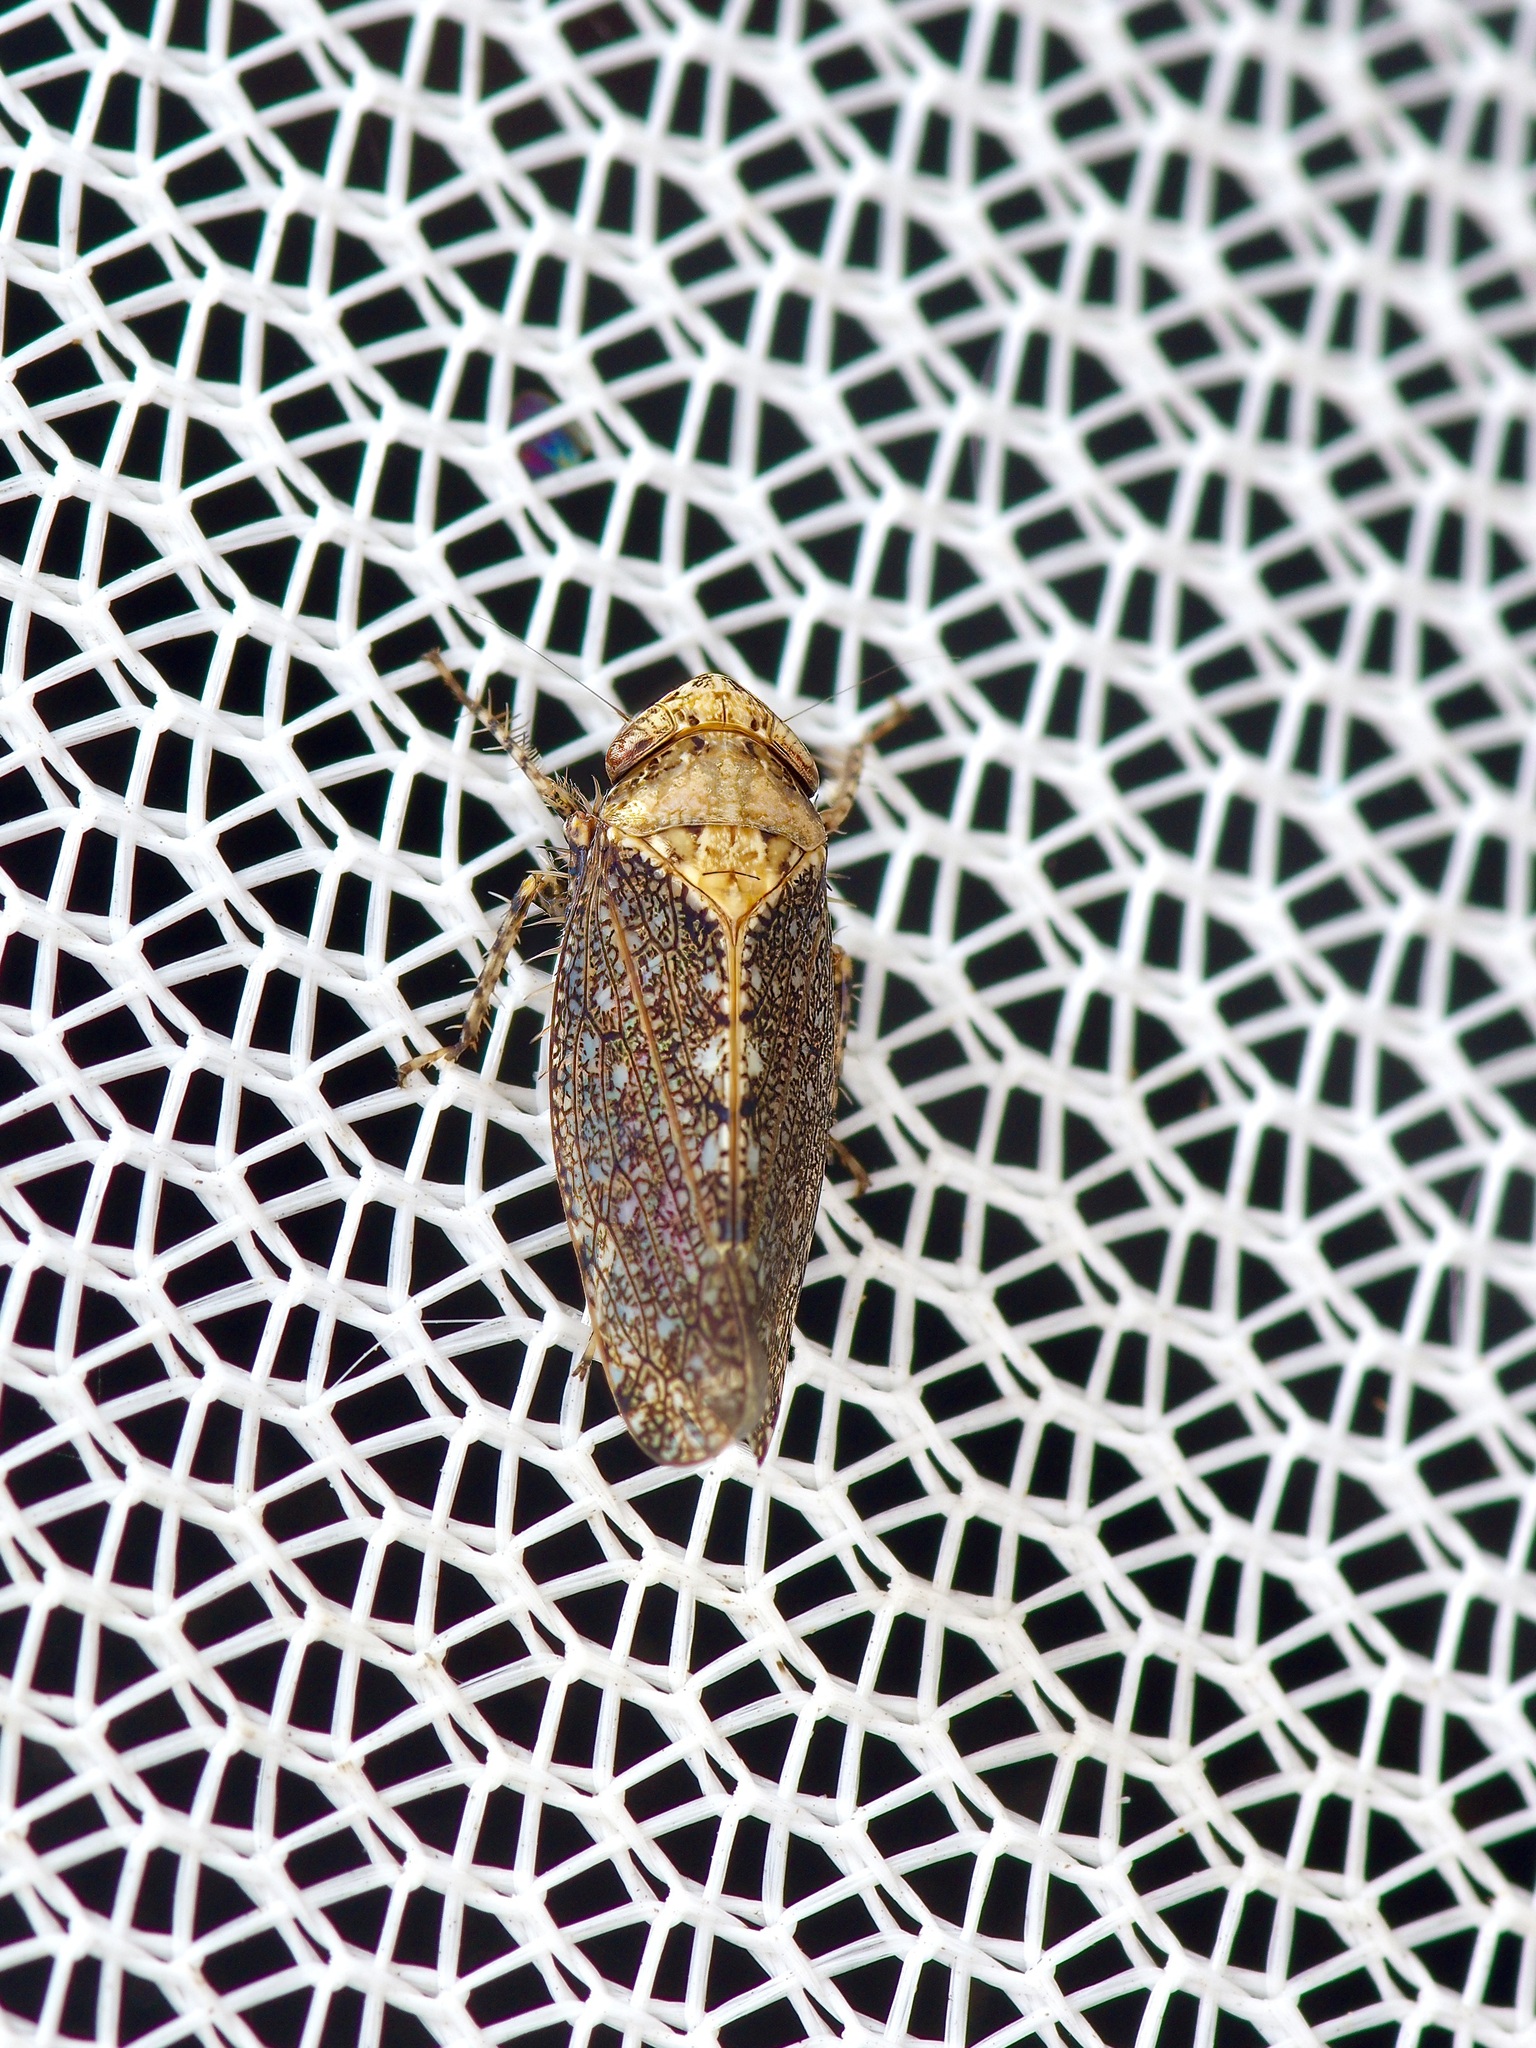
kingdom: Animalia
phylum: Arthropoda
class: Insecta
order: Hemiptera
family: Cicadellidae
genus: Excultanus
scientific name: Excultanus excultus
